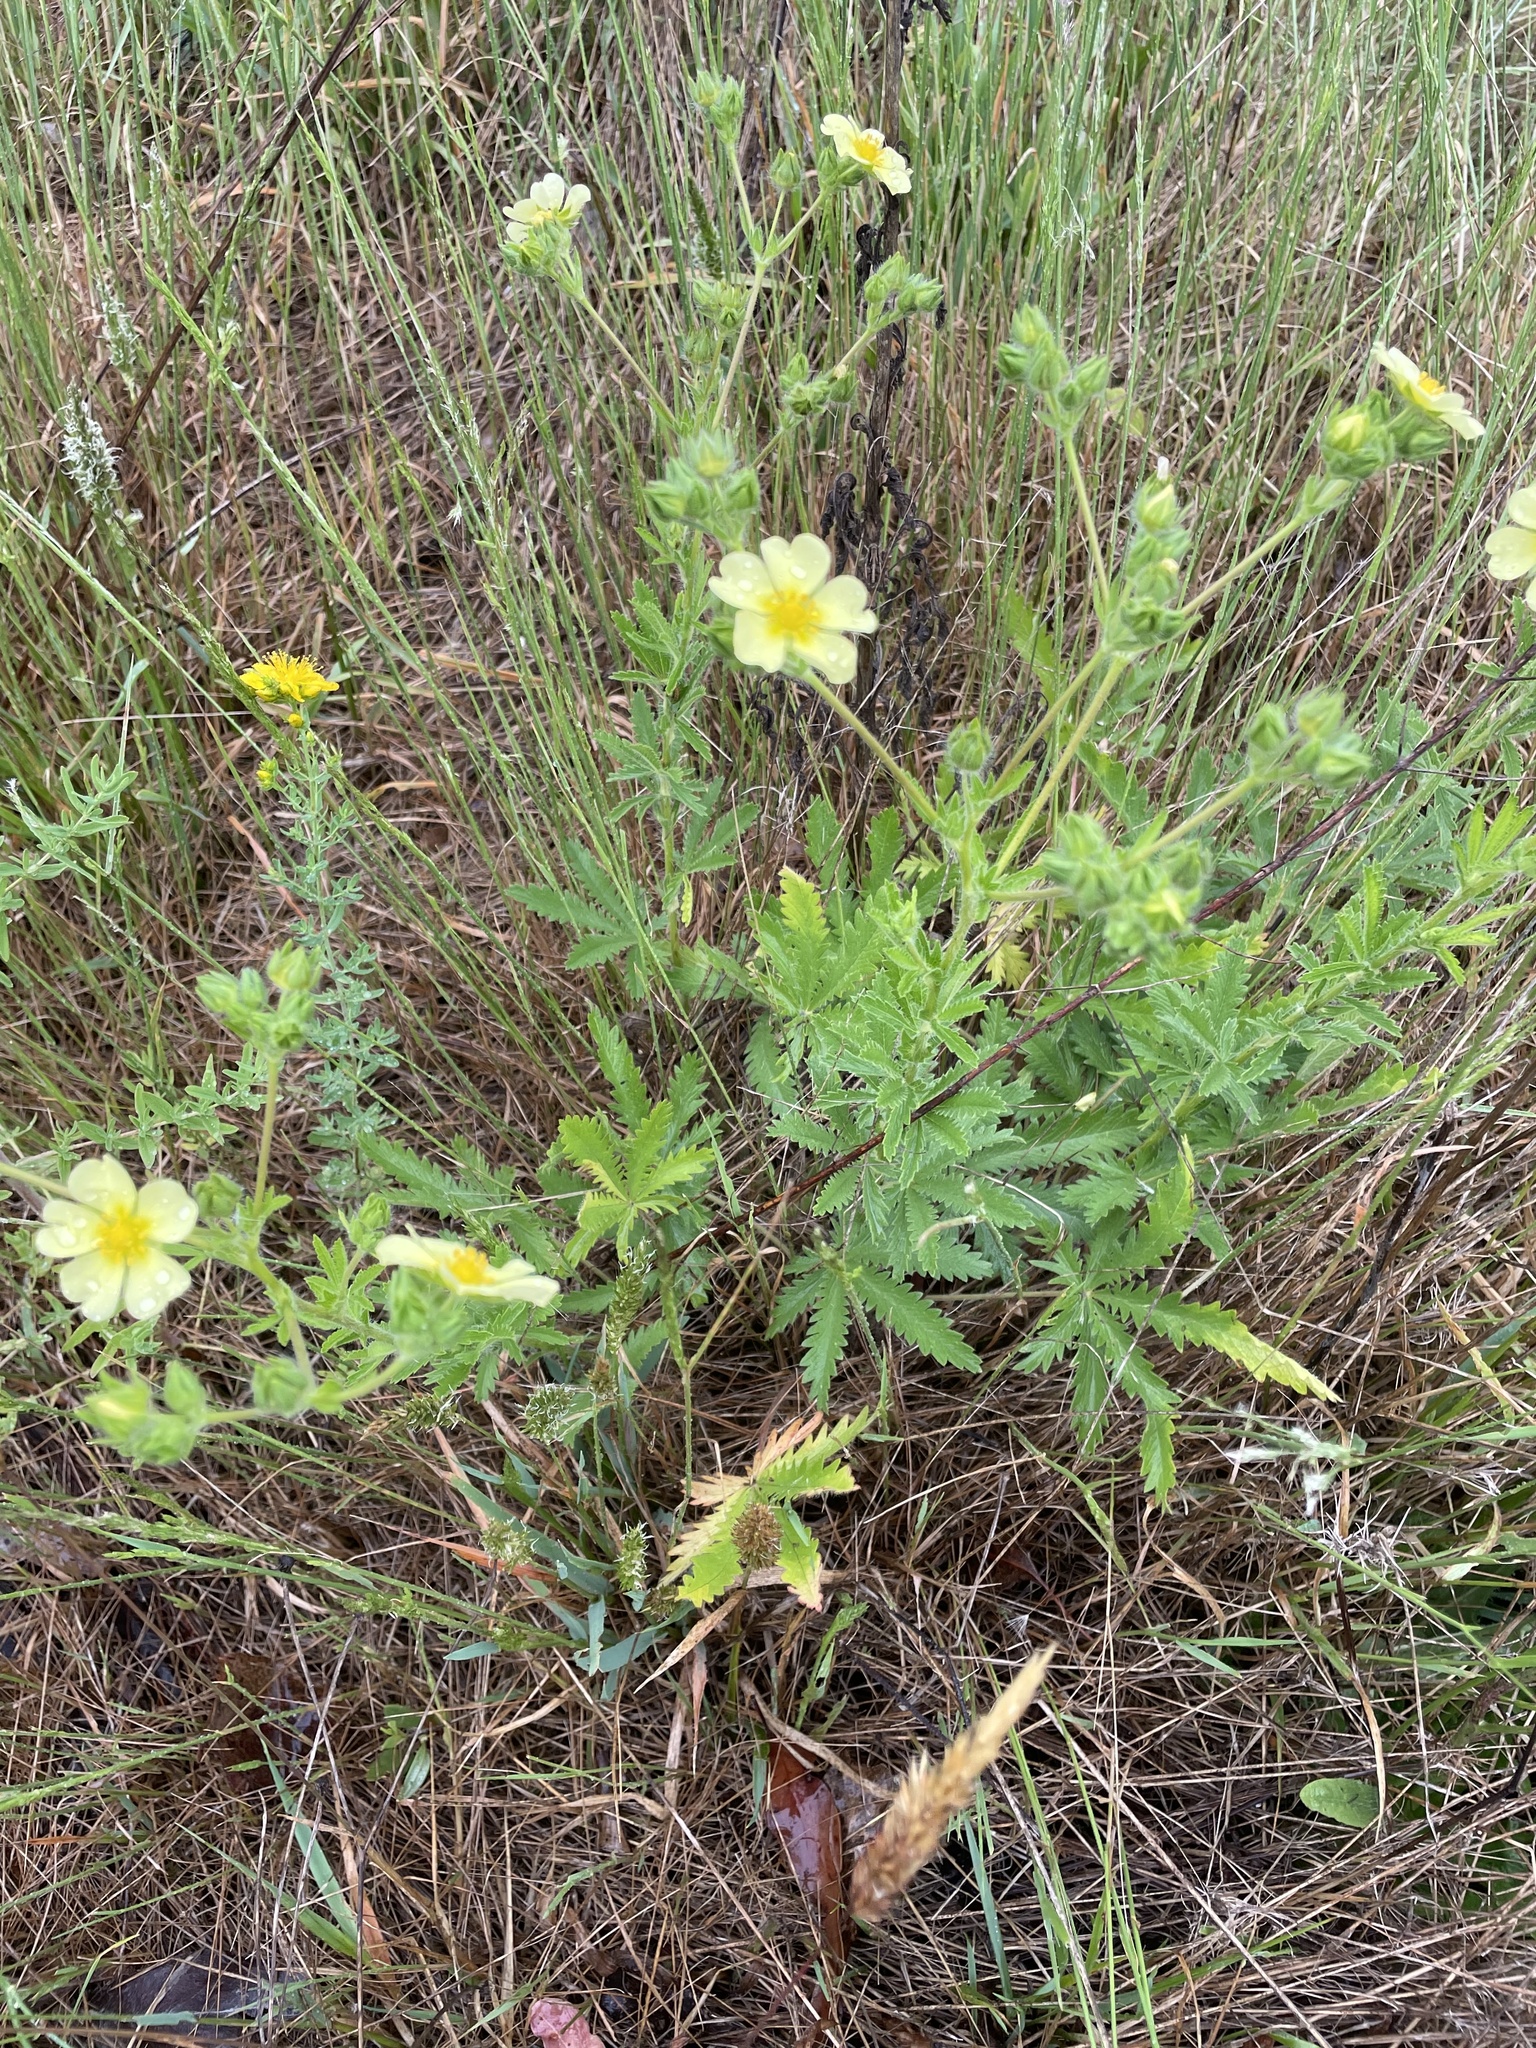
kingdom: Plantae
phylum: Tracheophyta
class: Magnoliopsida
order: Rosales
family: Rosaceae
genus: Potentilla
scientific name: Potentilla recta
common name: Sulphur cinquefoil
